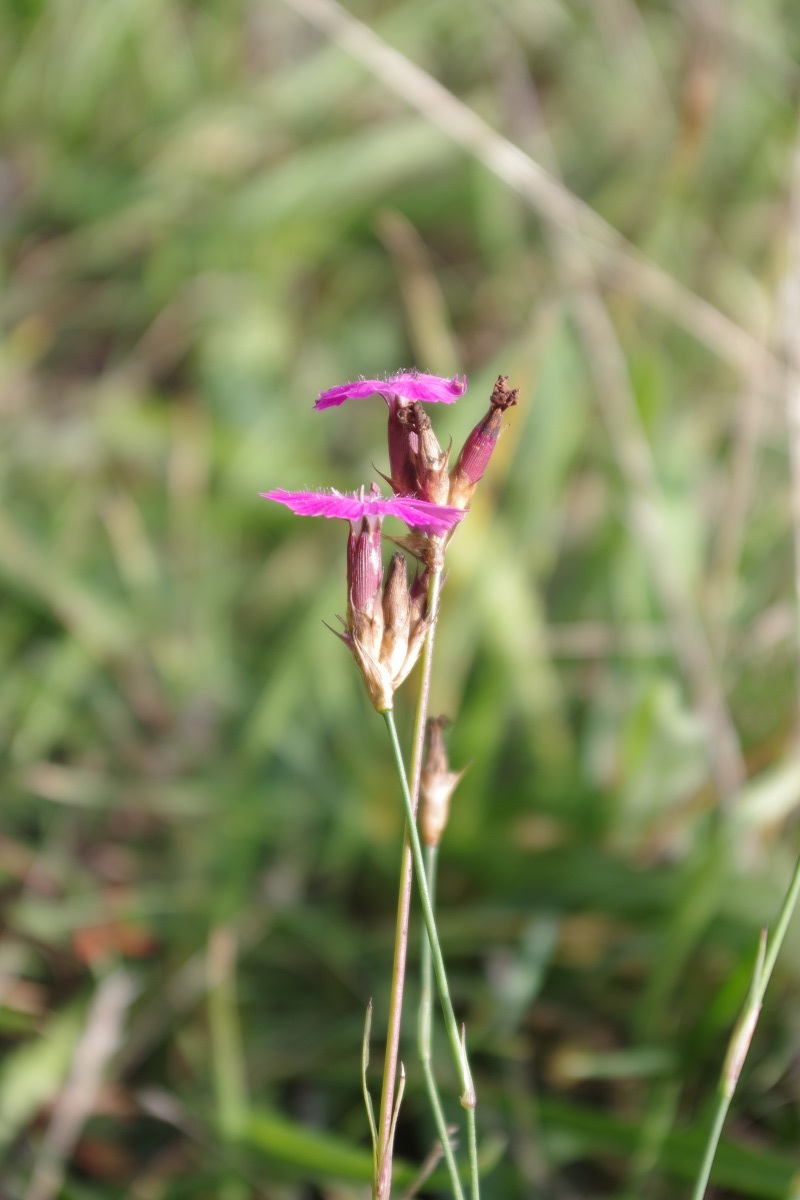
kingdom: Plantae
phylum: Tracheophyta
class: Magnoliopsida
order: Caryophyllales
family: Caryophyllaceae
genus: Dianthus
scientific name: Dianthus carthusianorum
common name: Carthusian pink
